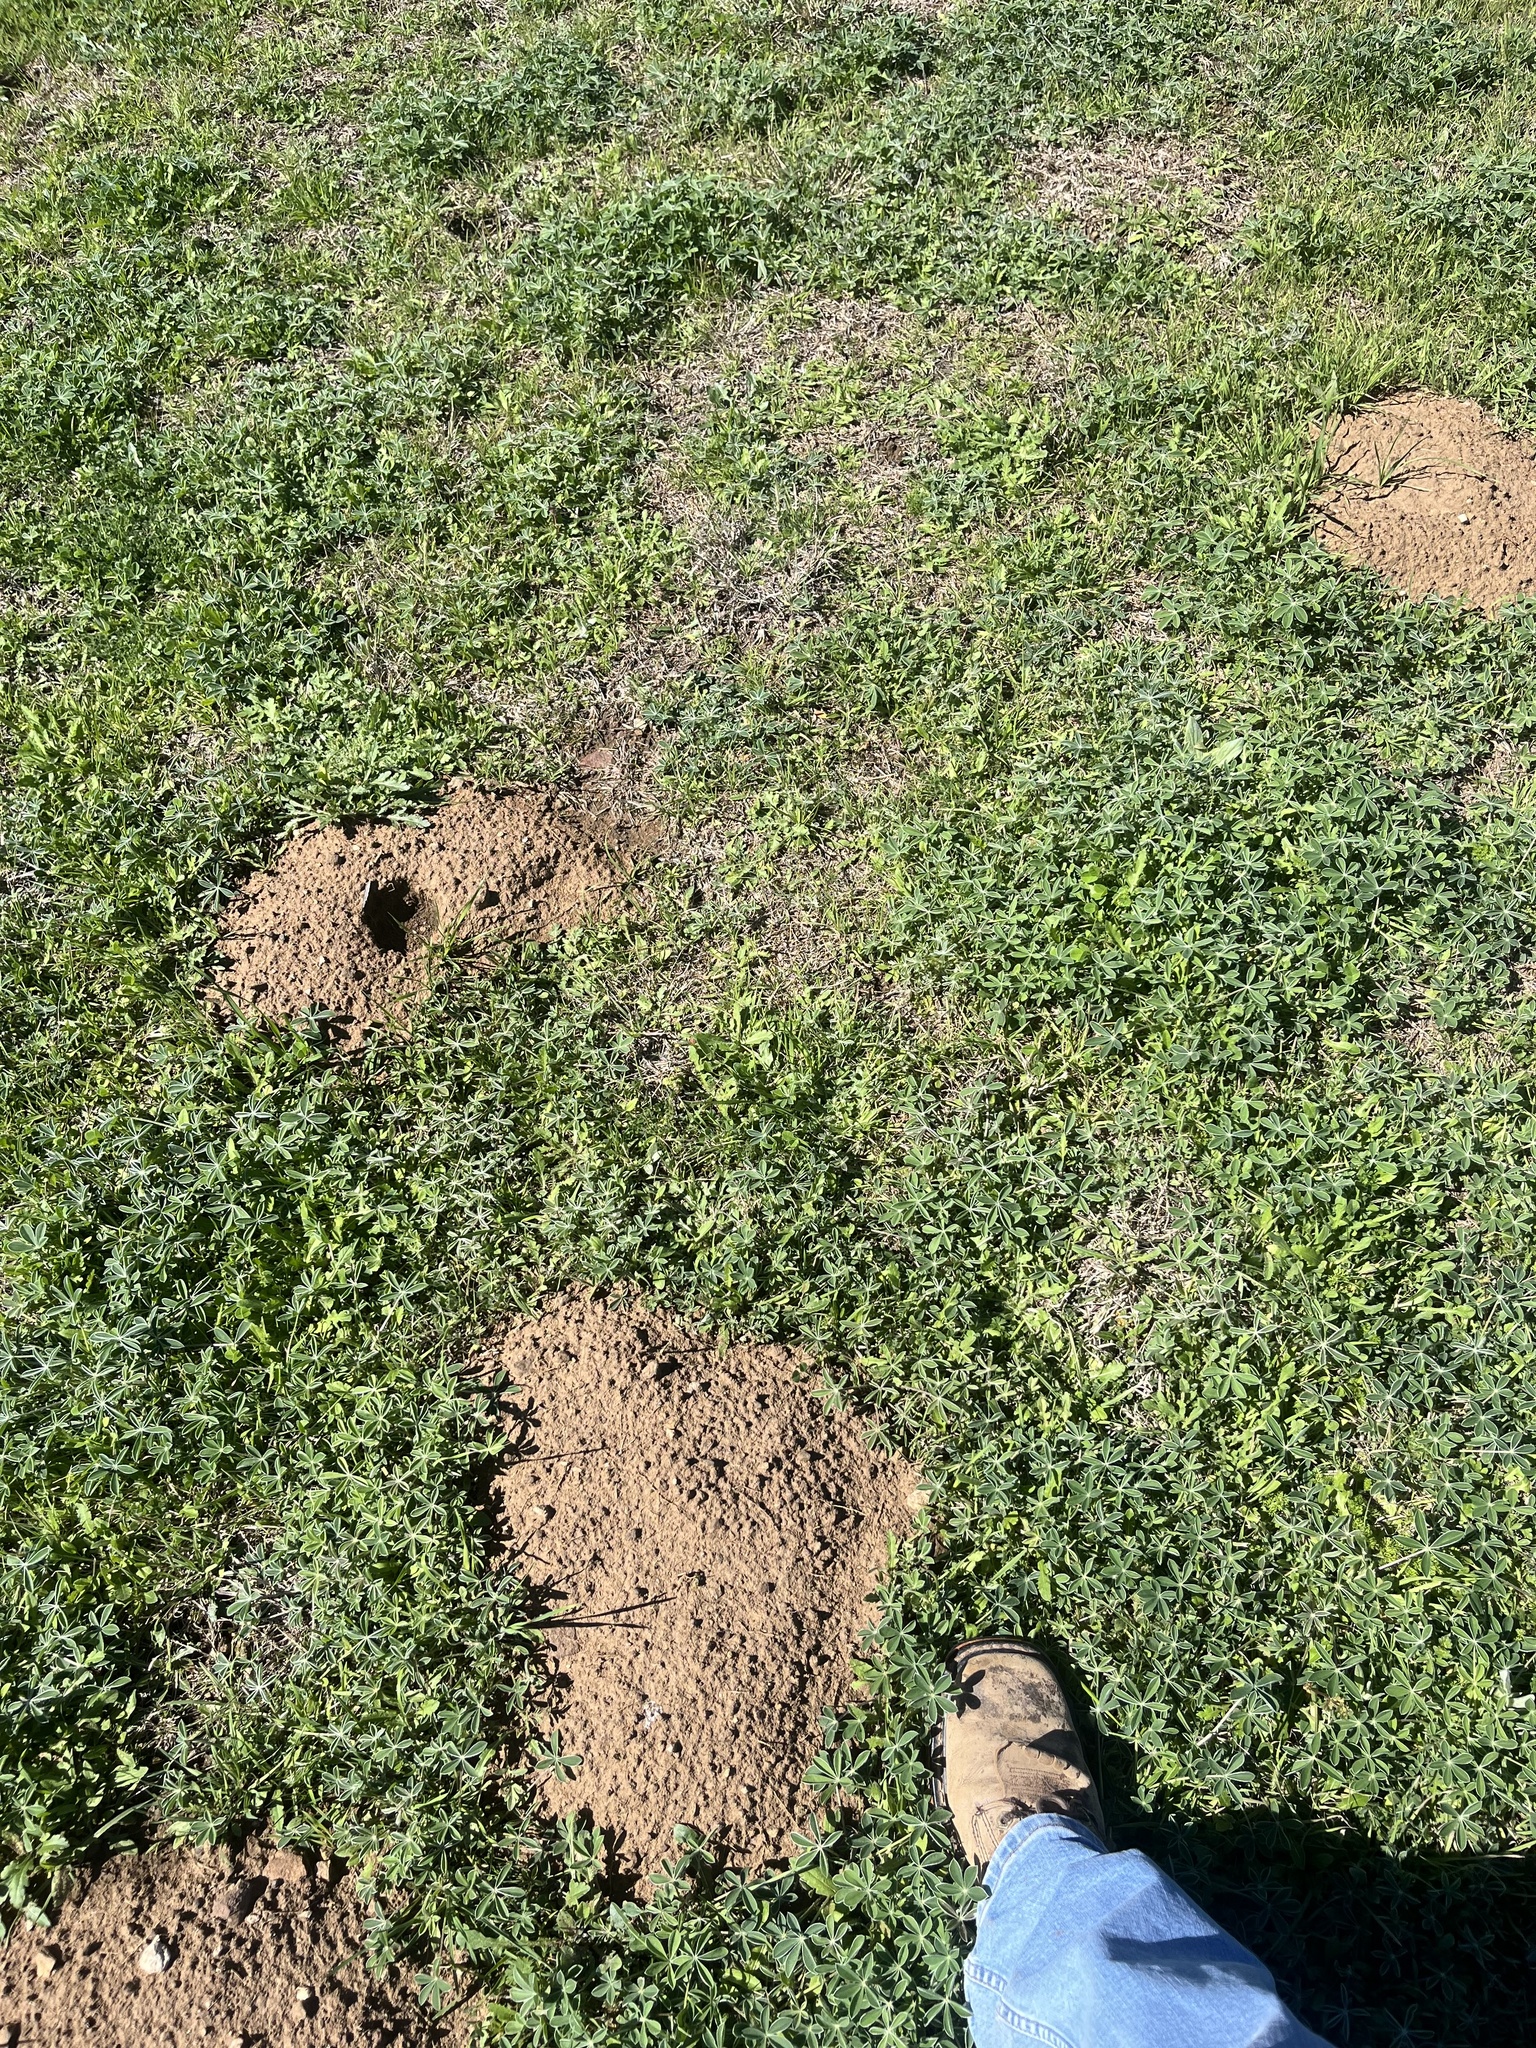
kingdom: Animalia
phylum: Chordata
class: Mammalia
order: Rodentia
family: Geomyidae
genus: Geomys
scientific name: Geomys texensis
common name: Llano pocket gopher
